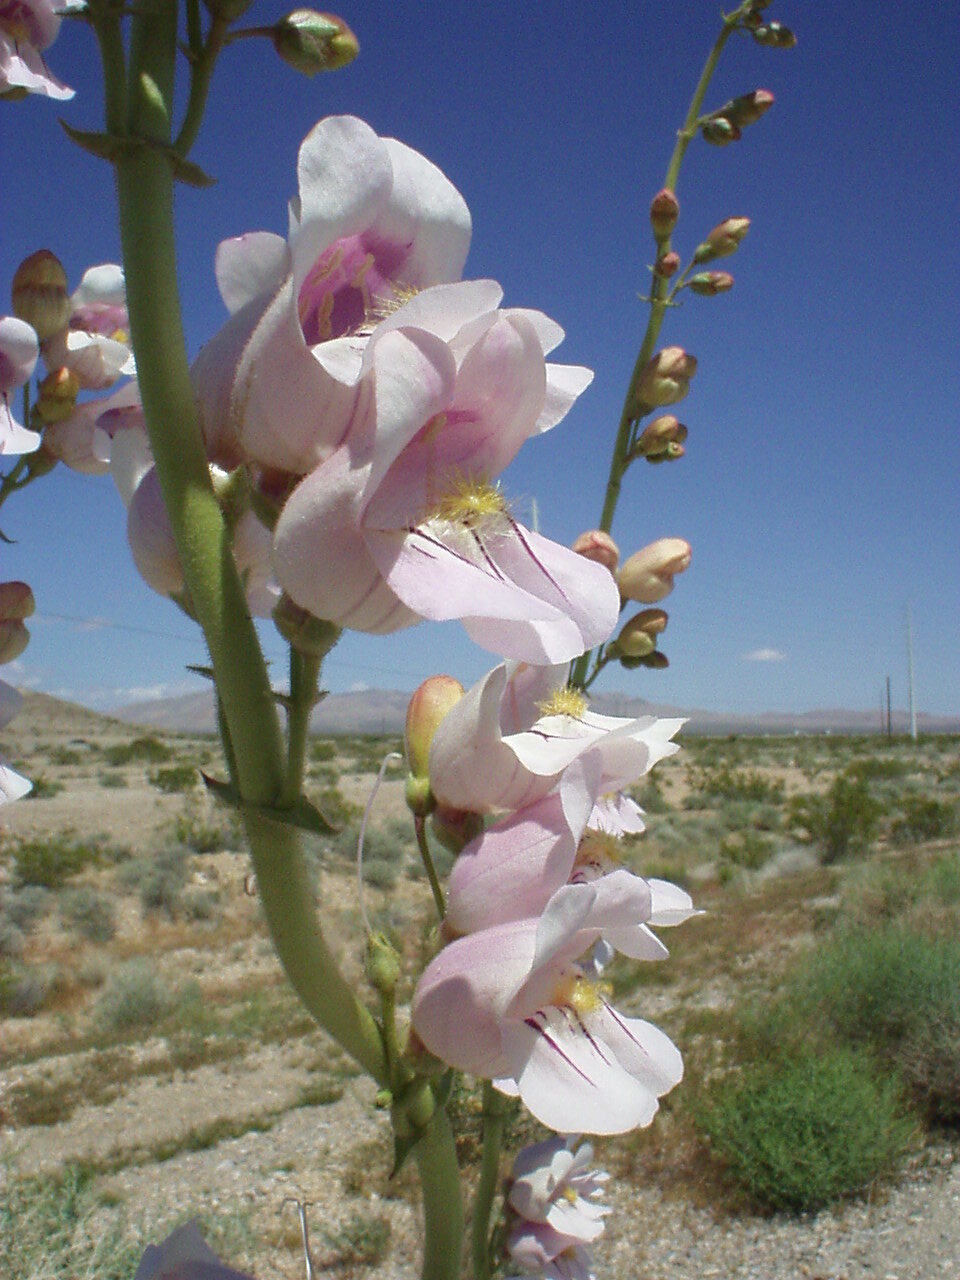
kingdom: Plantae
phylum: Tracheophyta
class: Magnoliopsida
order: Lamiales
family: Plantaginaceae
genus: Penstemon
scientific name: Penstemon palmeri
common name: Palmer penstemon
